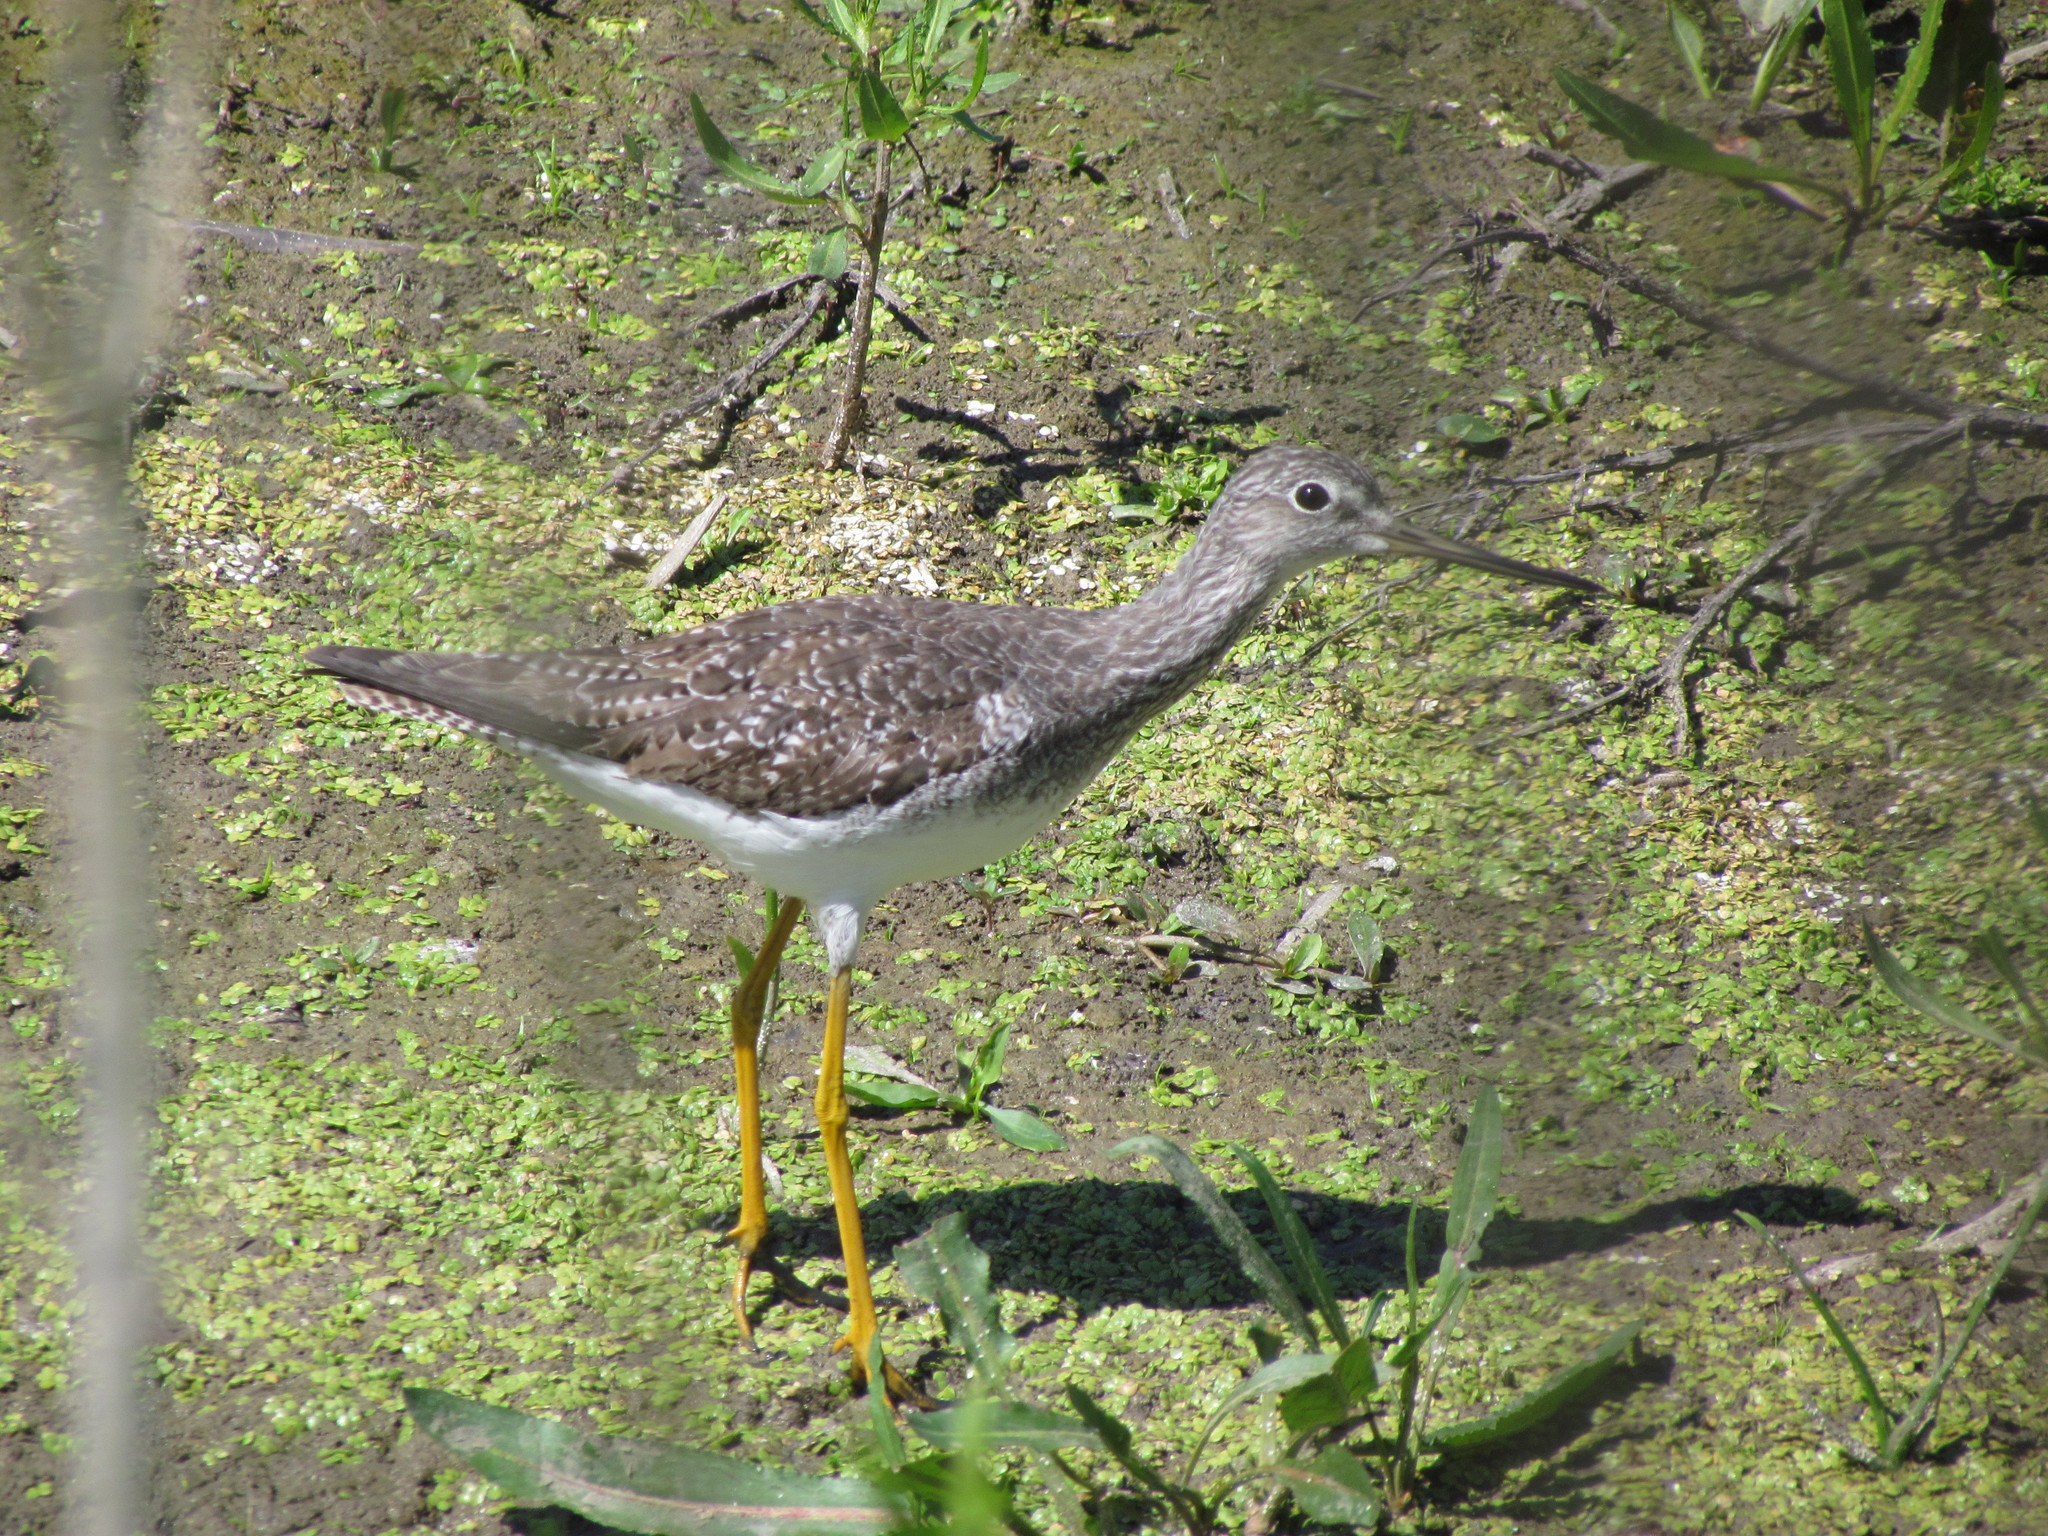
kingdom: Animalia
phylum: Chordata
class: Aves
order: Charadriiformes
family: Scolopacidae
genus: Tringa
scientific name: Tringa melanoleuca
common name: Greater yellowlegs
